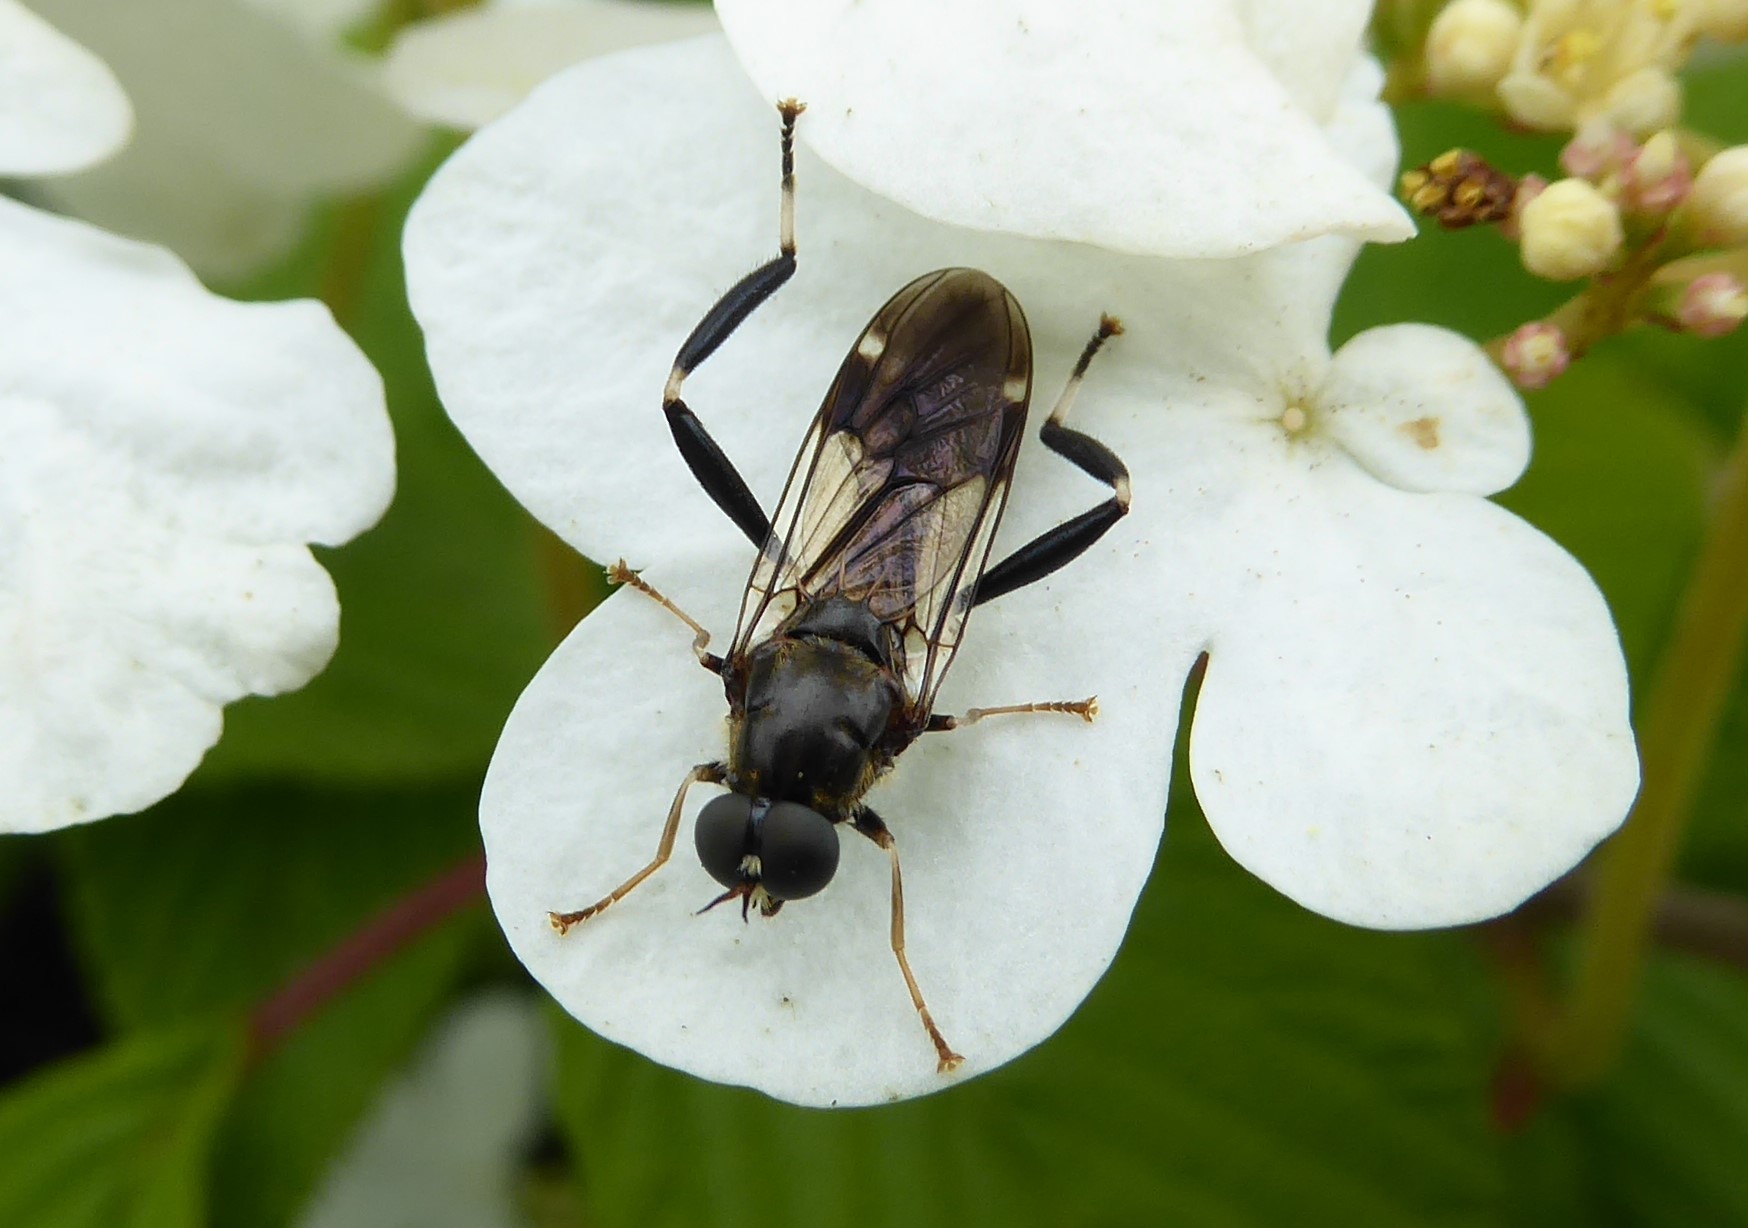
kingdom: Animalia
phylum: Arthropoda
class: Insecta
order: Diptera
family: Stratiomyidae
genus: Exaireta
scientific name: Exaireta spinigera
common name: Blue soldier fly
